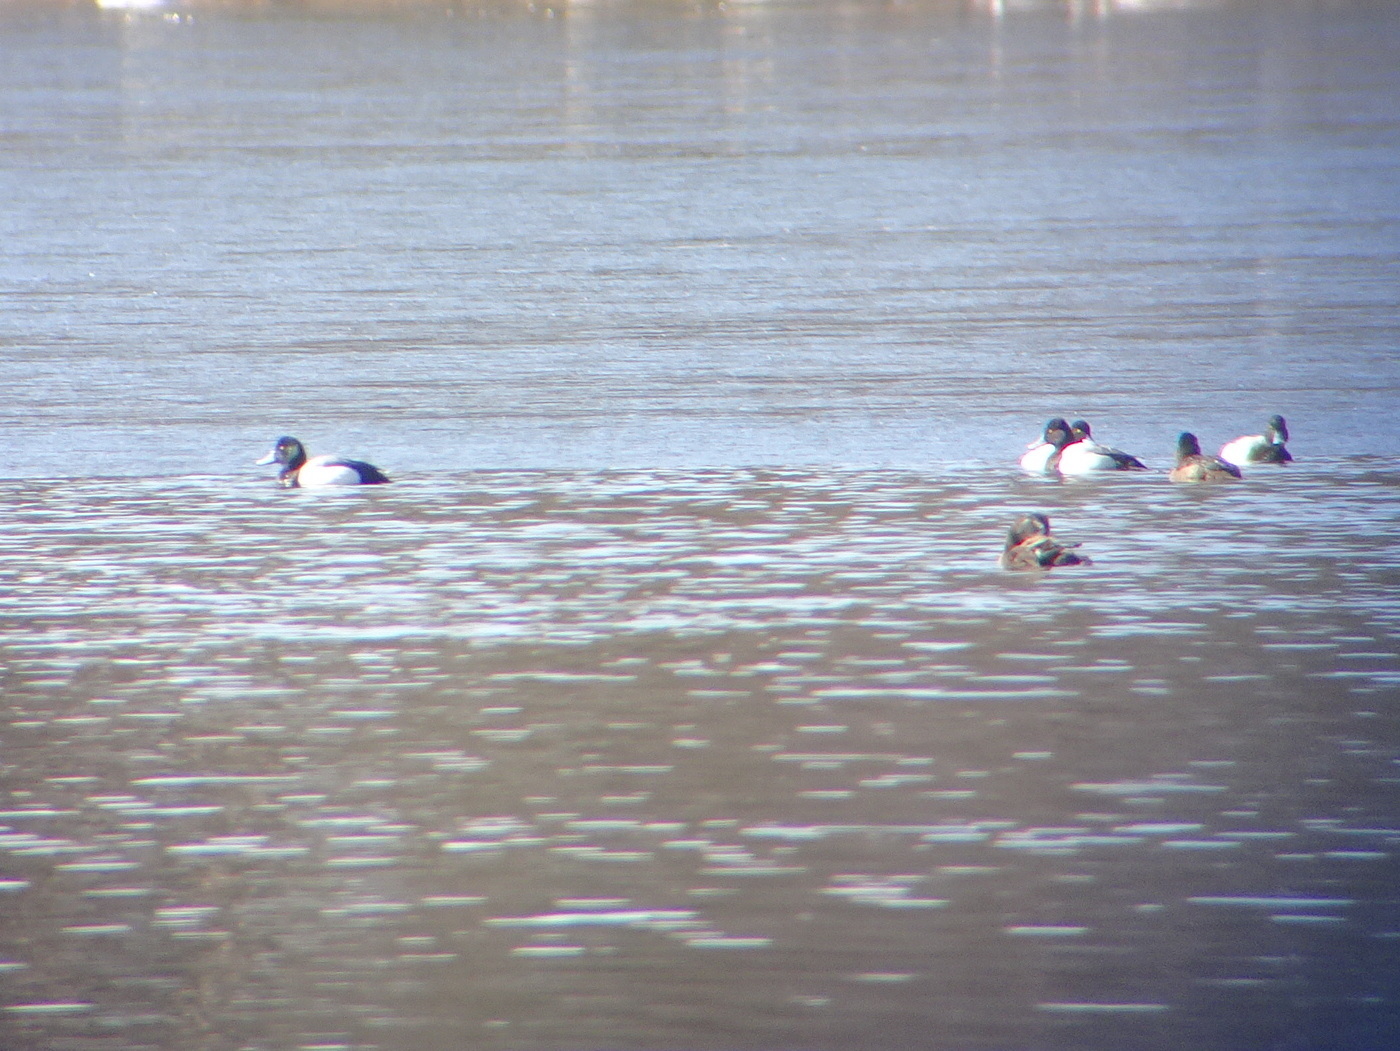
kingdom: Animalia
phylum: Chordata
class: Aves
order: Anseriformes
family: Anatidae
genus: Aythya
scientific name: Aythya marila
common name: Greater scaup
